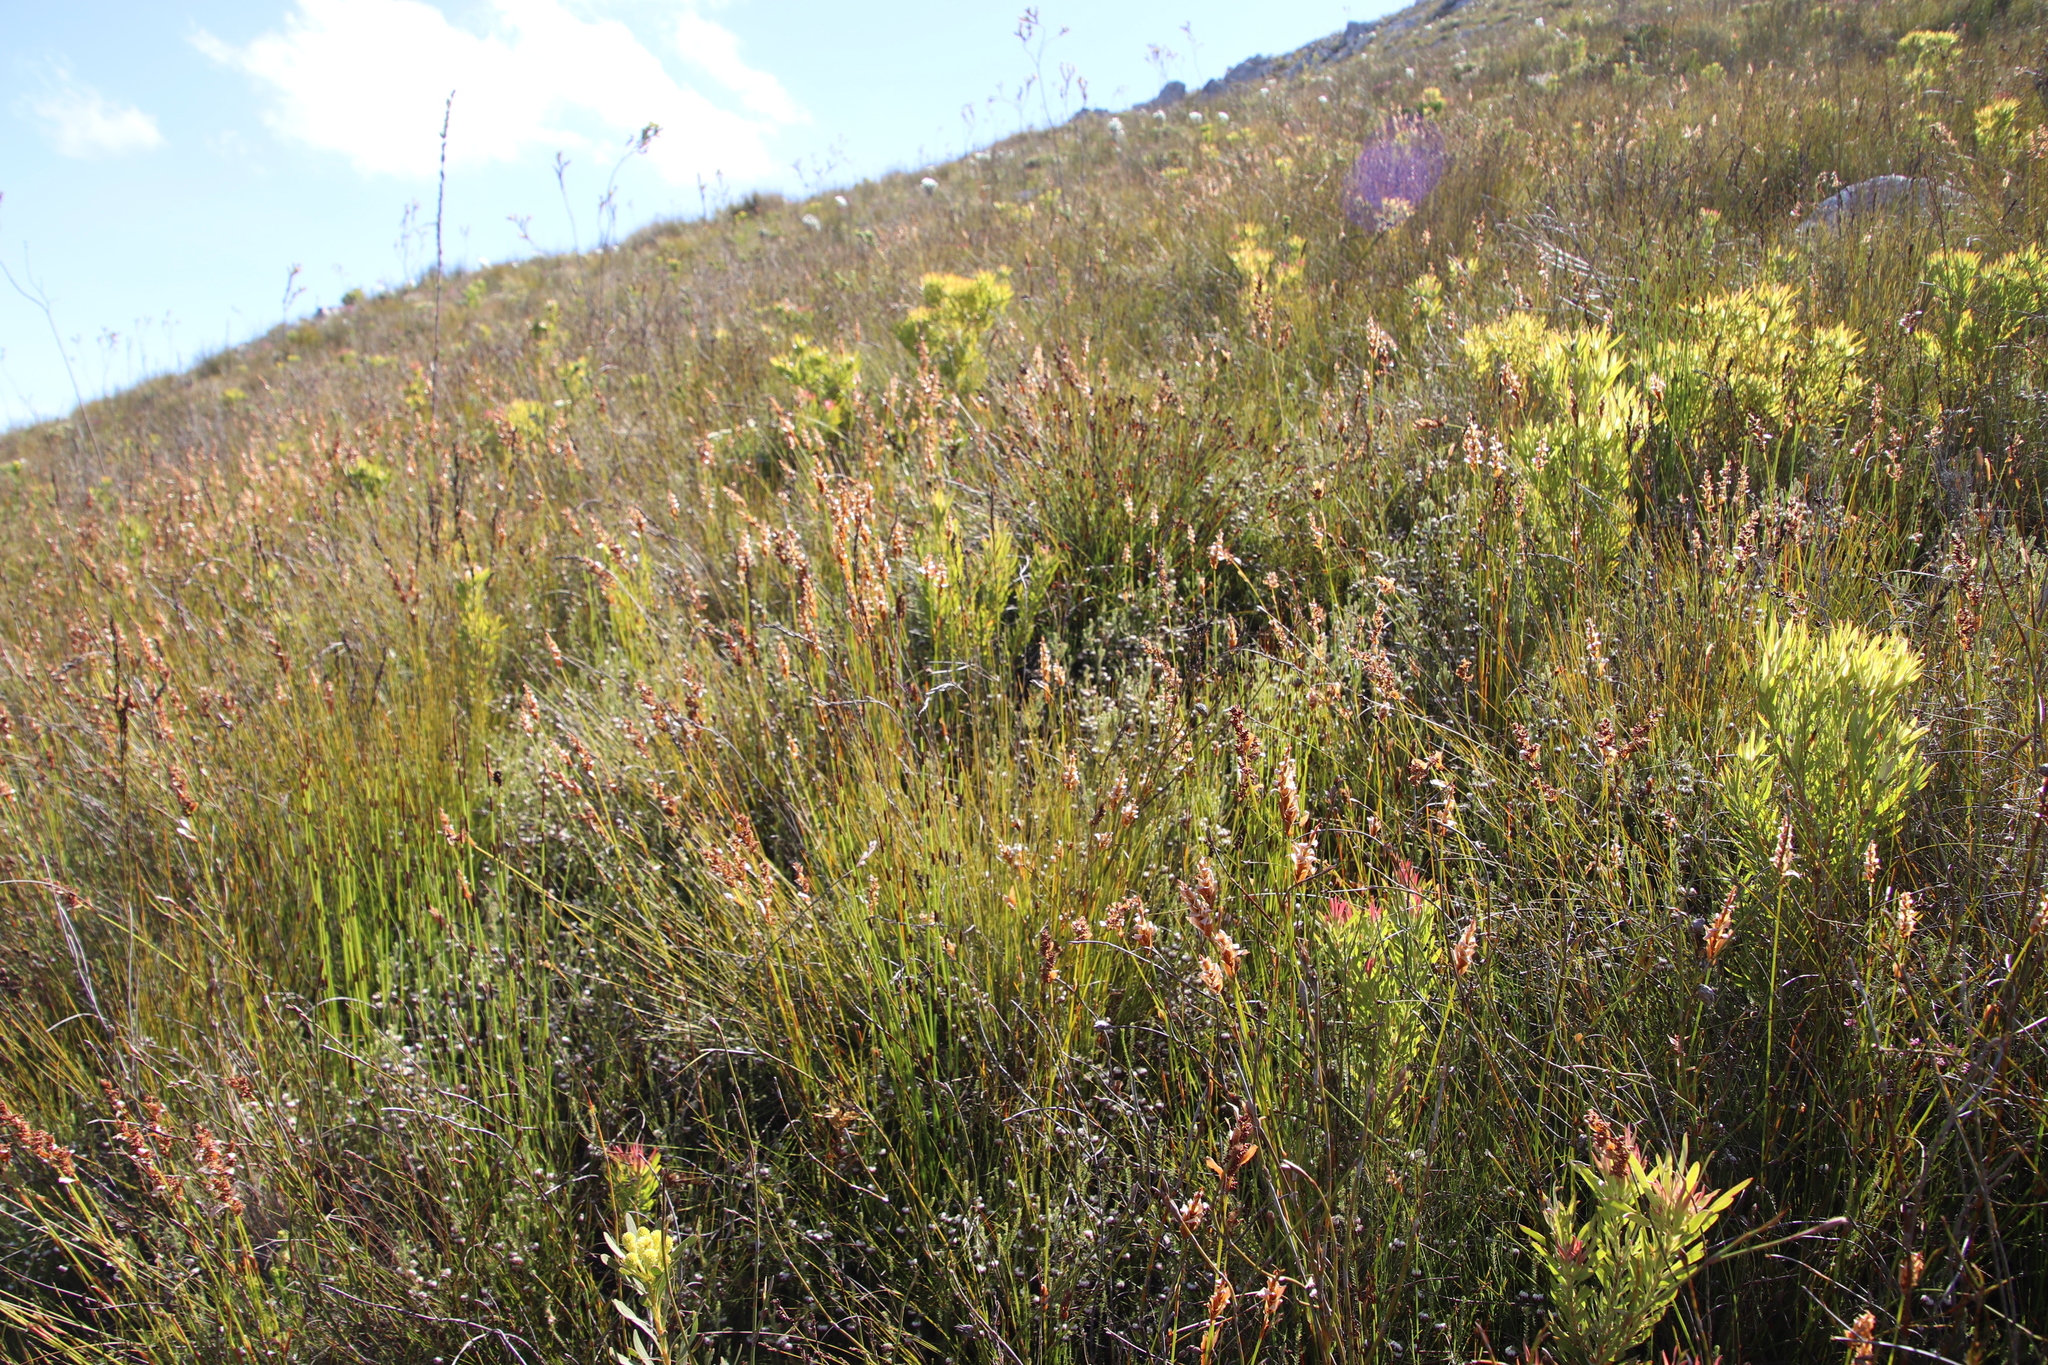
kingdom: Plantae
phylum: Tracheophyta
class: Magnoliopsida
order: Ericales
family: Ericaceae
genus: Erica
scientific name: Erica cumuliflora
